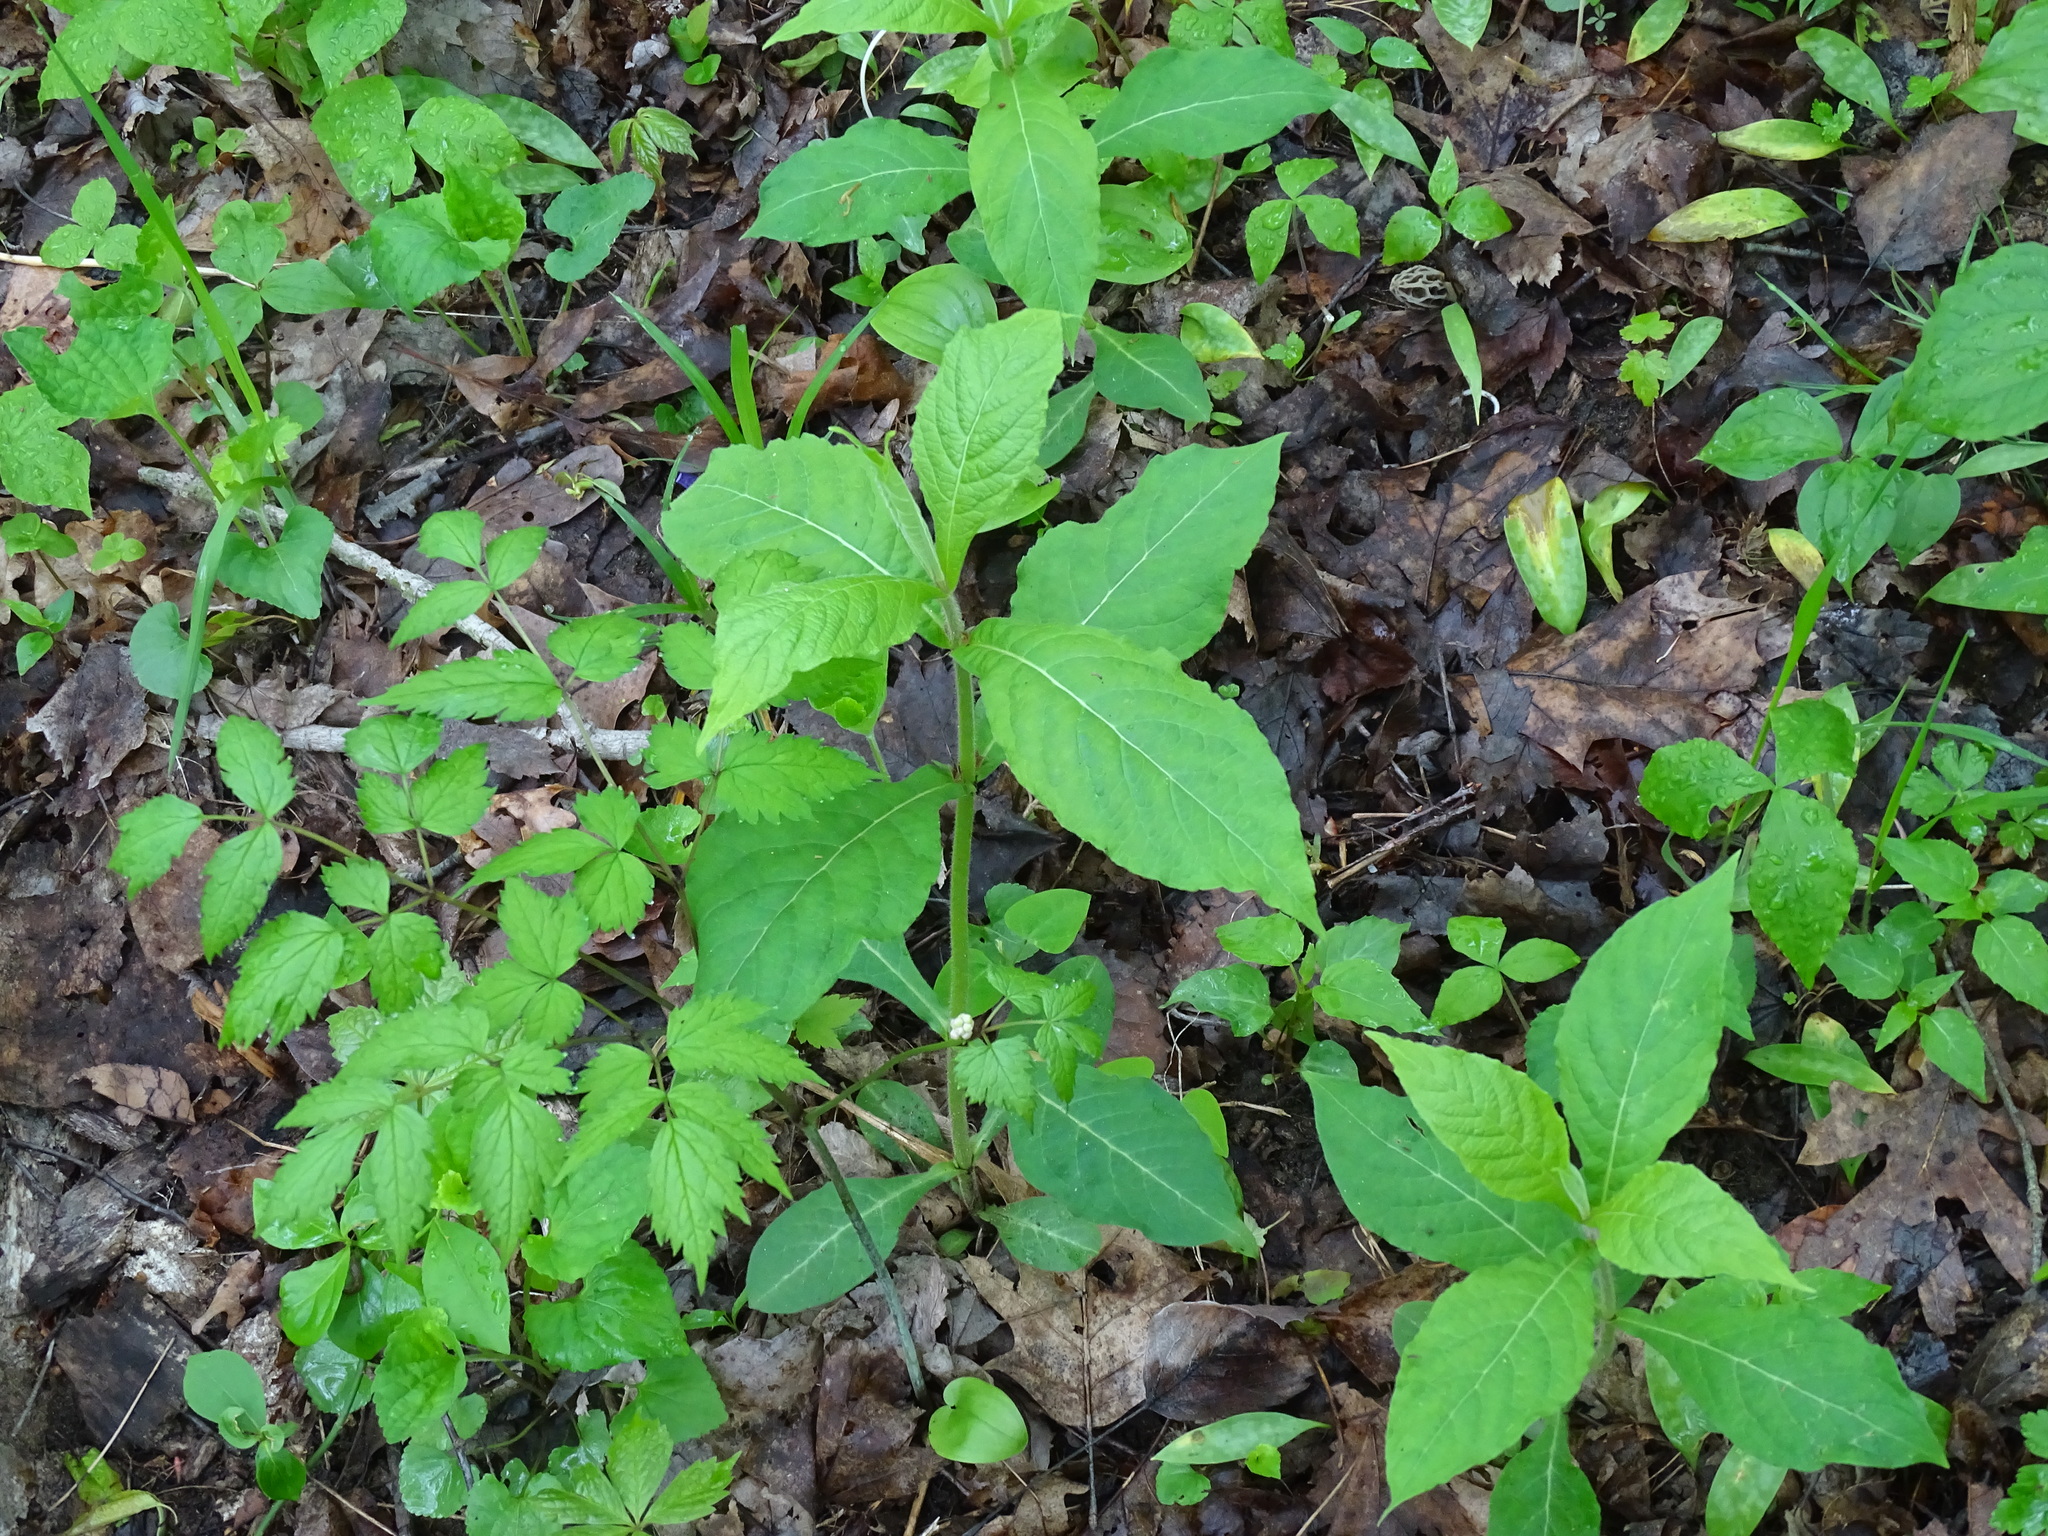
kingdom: Plantae
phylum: Tracheophyta
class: Magnoliopsida
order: Dipsacales
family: Caprifoliaceae
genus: Triosteum
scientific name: Triosteum aurantiacum
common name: Coffee tinker's-weed
